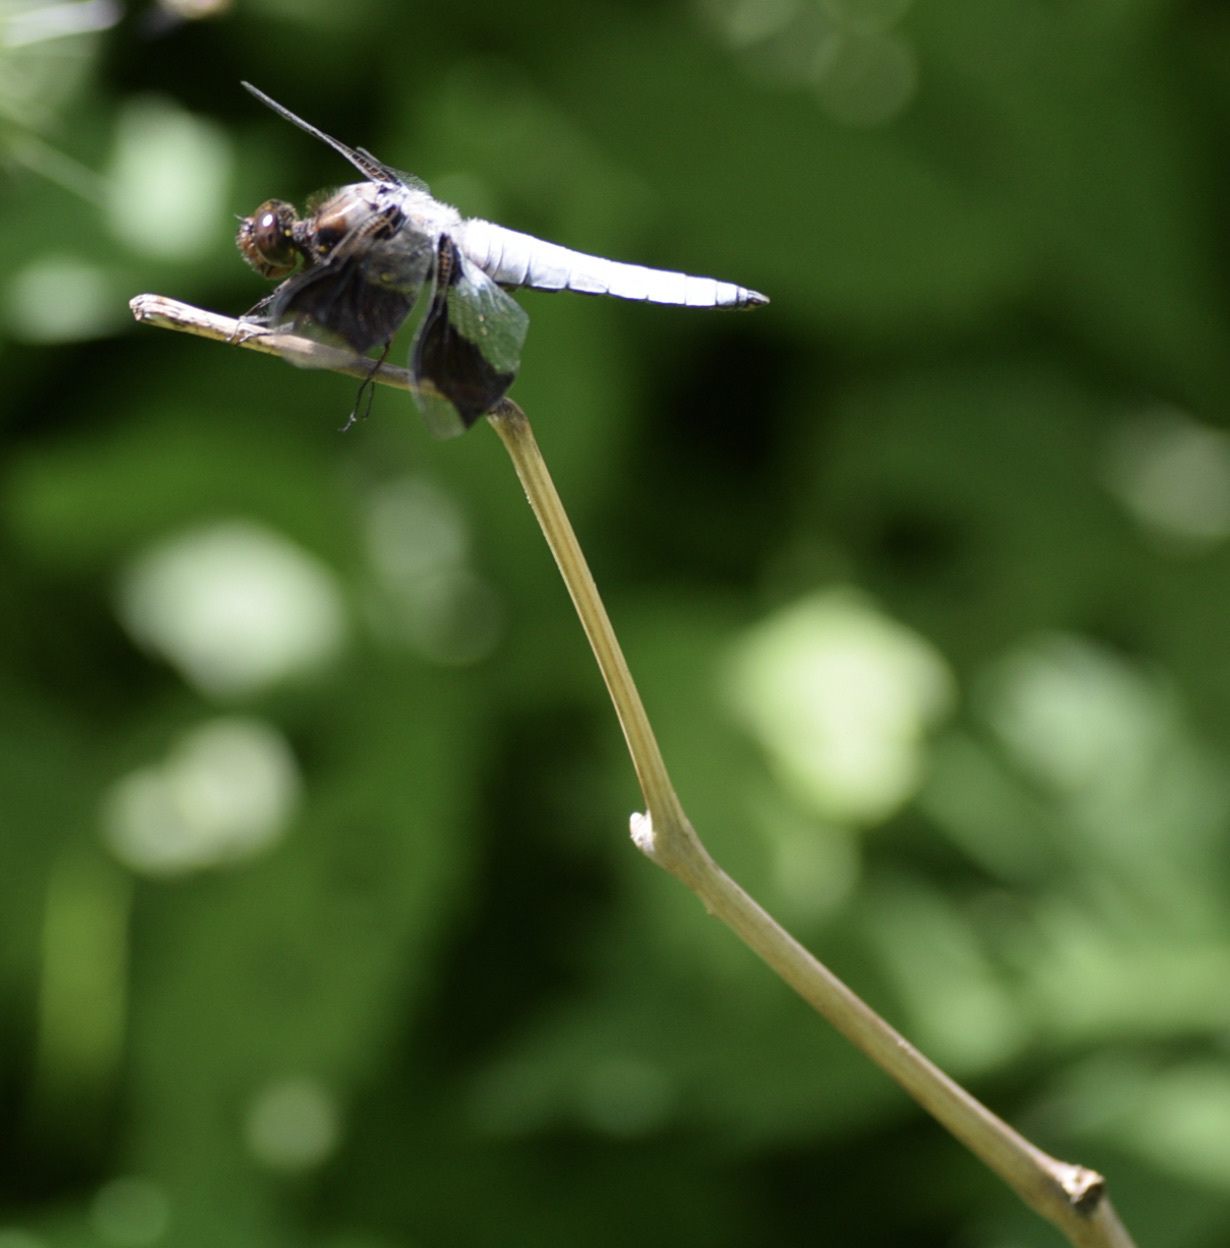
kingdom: Animalia
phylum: Arthropoda
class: Insecta
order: Odonata
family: Libellulidae
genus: Plathemis
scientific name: Plathemis lydia
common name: Common whitetail
